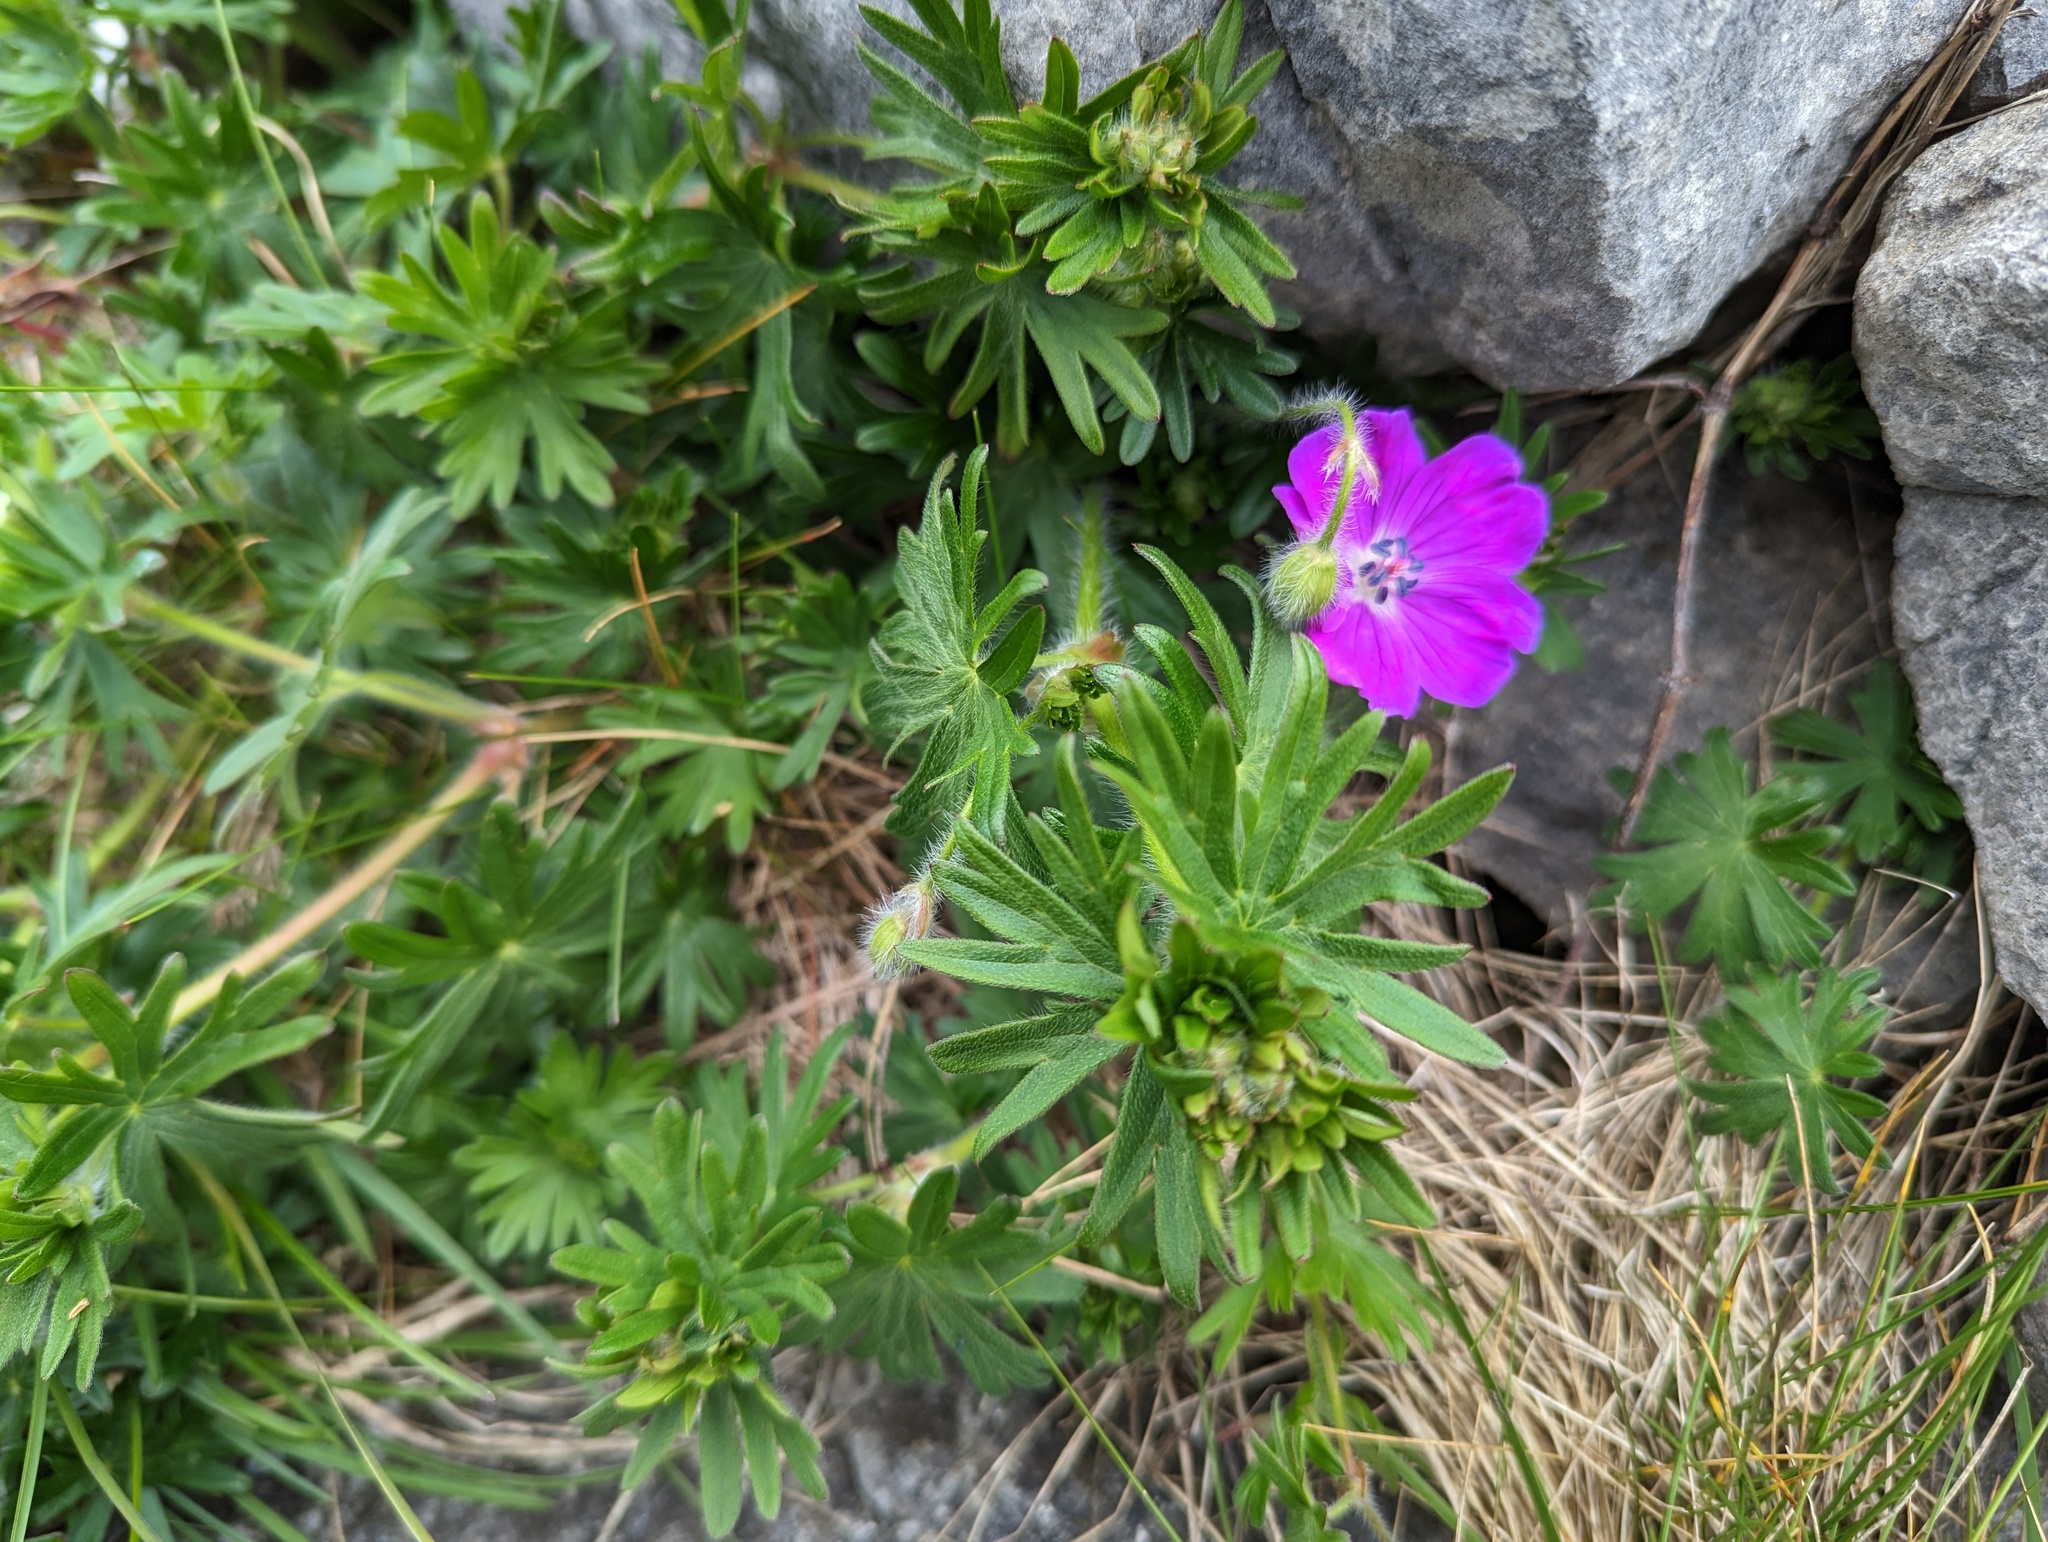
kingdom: Plantae
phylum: Tracheophyta
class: Magnoliopsida
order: Geraniales
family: Geraniaceae
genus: Geranium
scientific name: Geranium sanguineum
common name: Bloody crane's-bill
